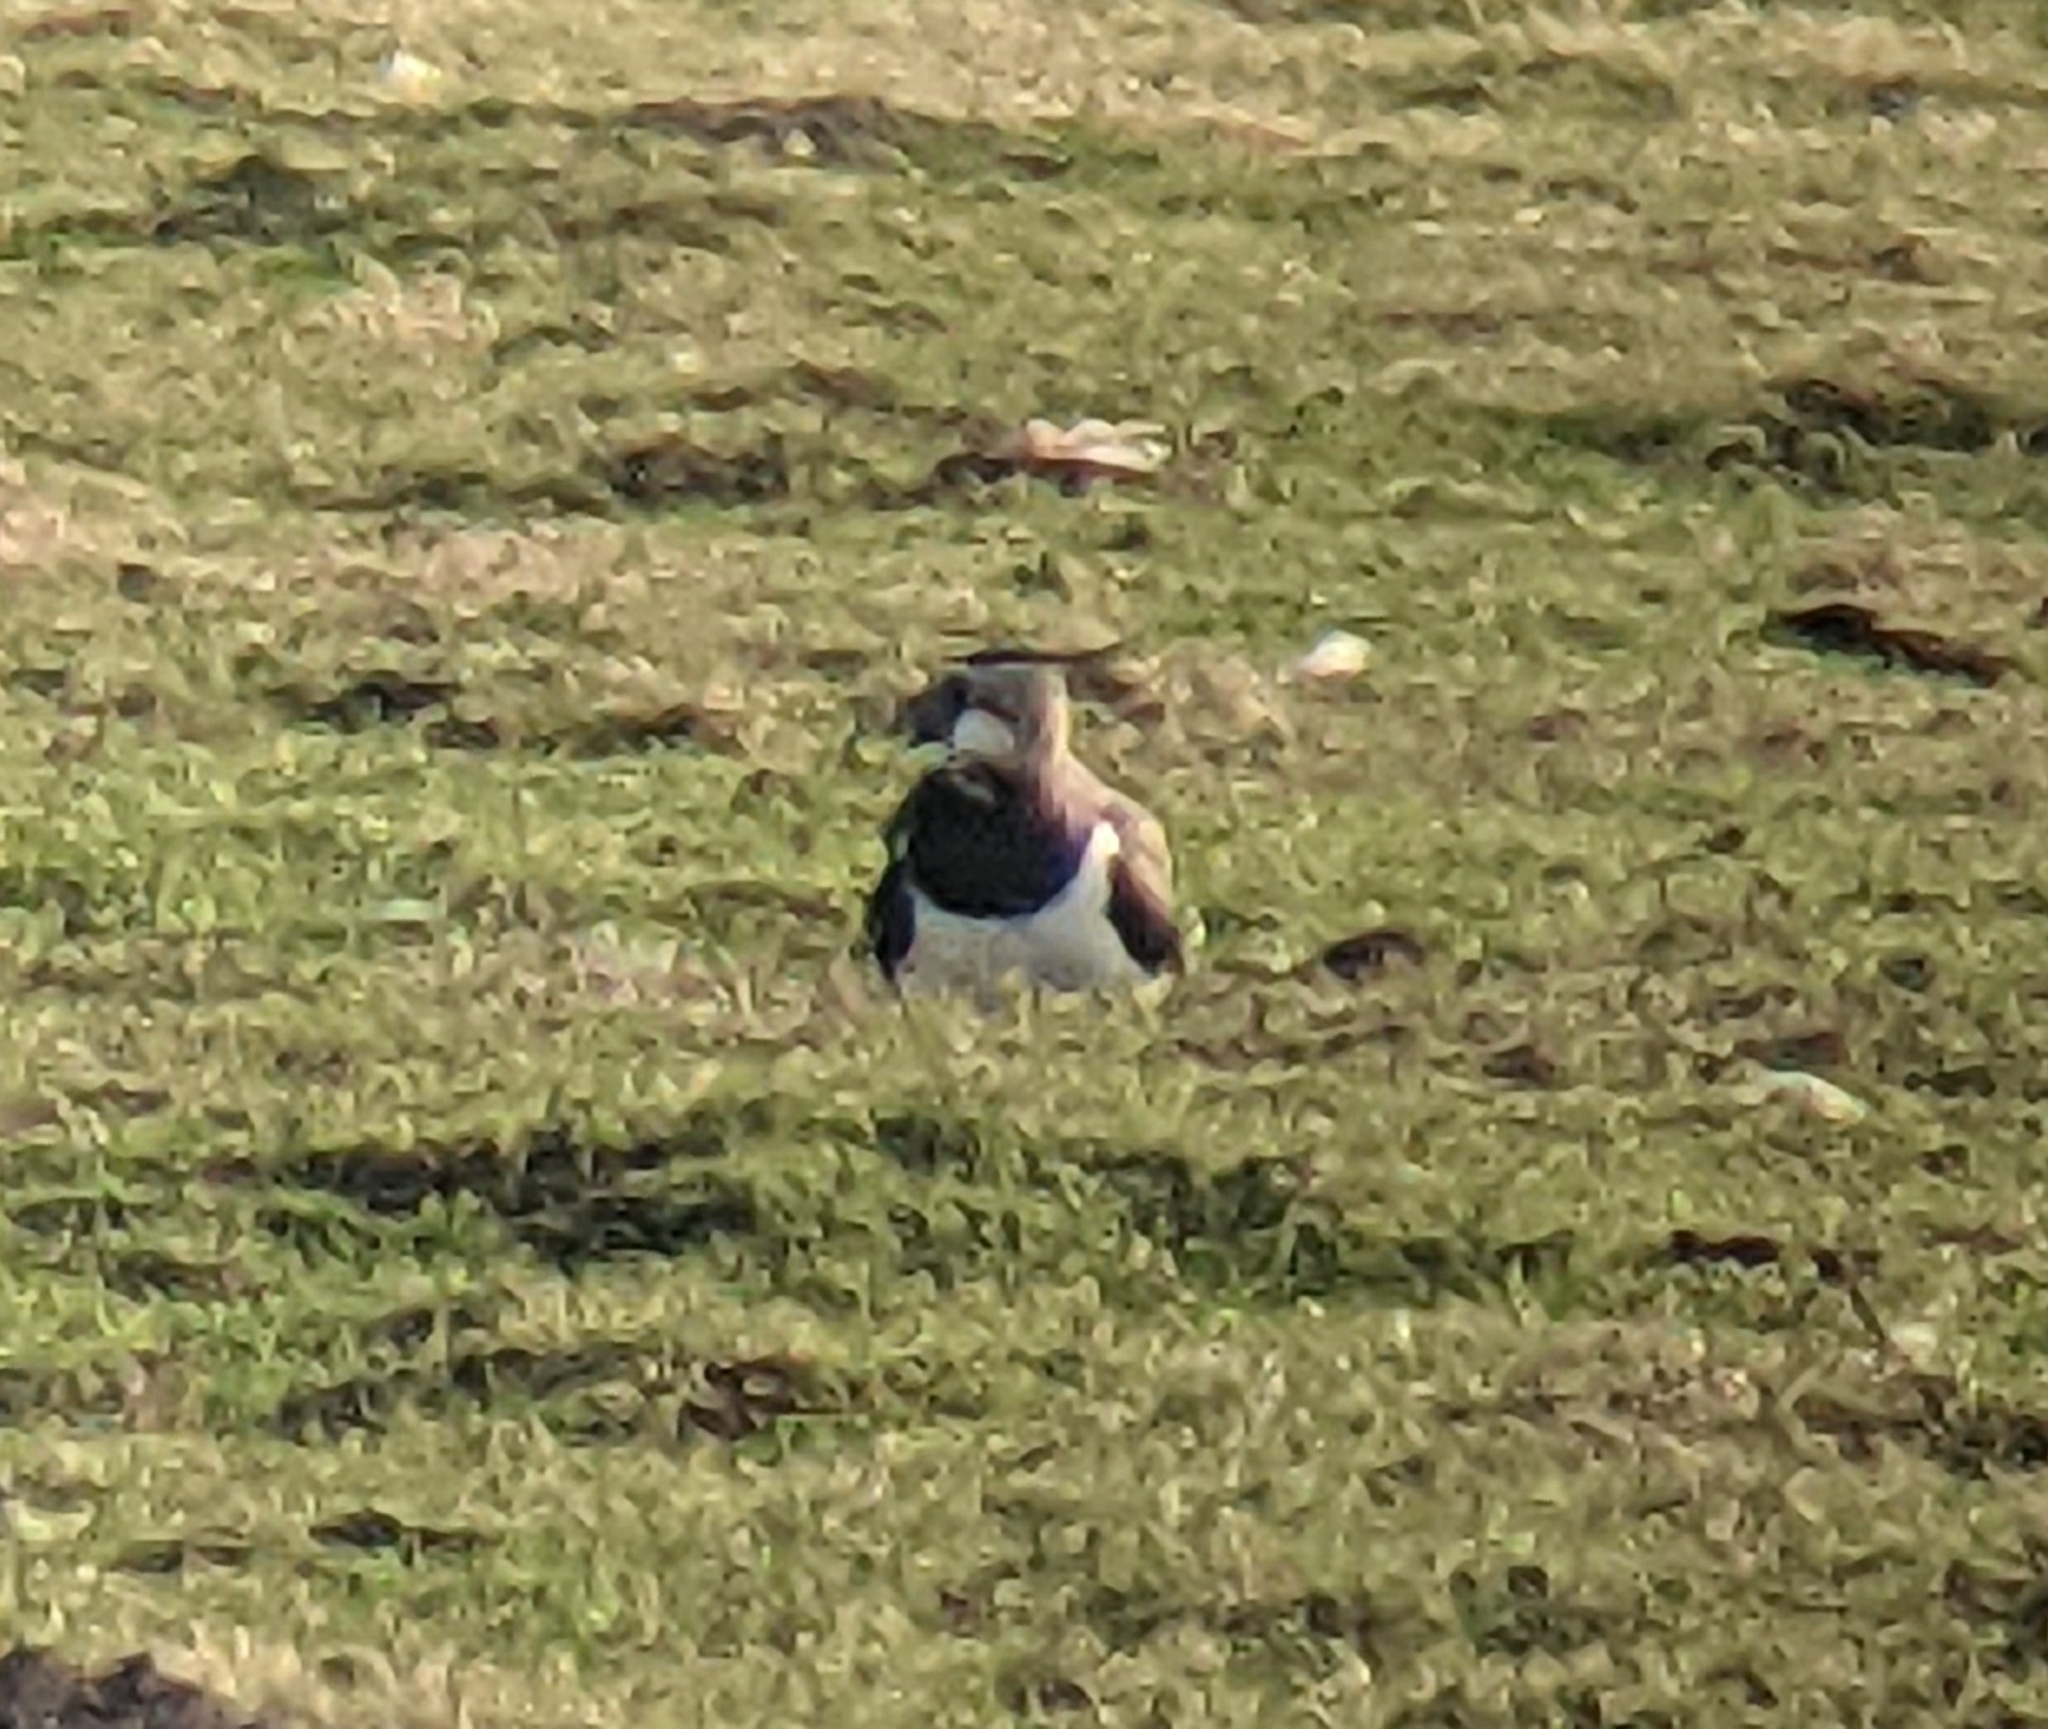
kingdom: Animalia
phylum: Chordata
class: Aves
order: Charadriiformes
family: Charadriidae
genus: Vanellus
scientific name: Vanellus vanellus
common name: Northern lapwing
